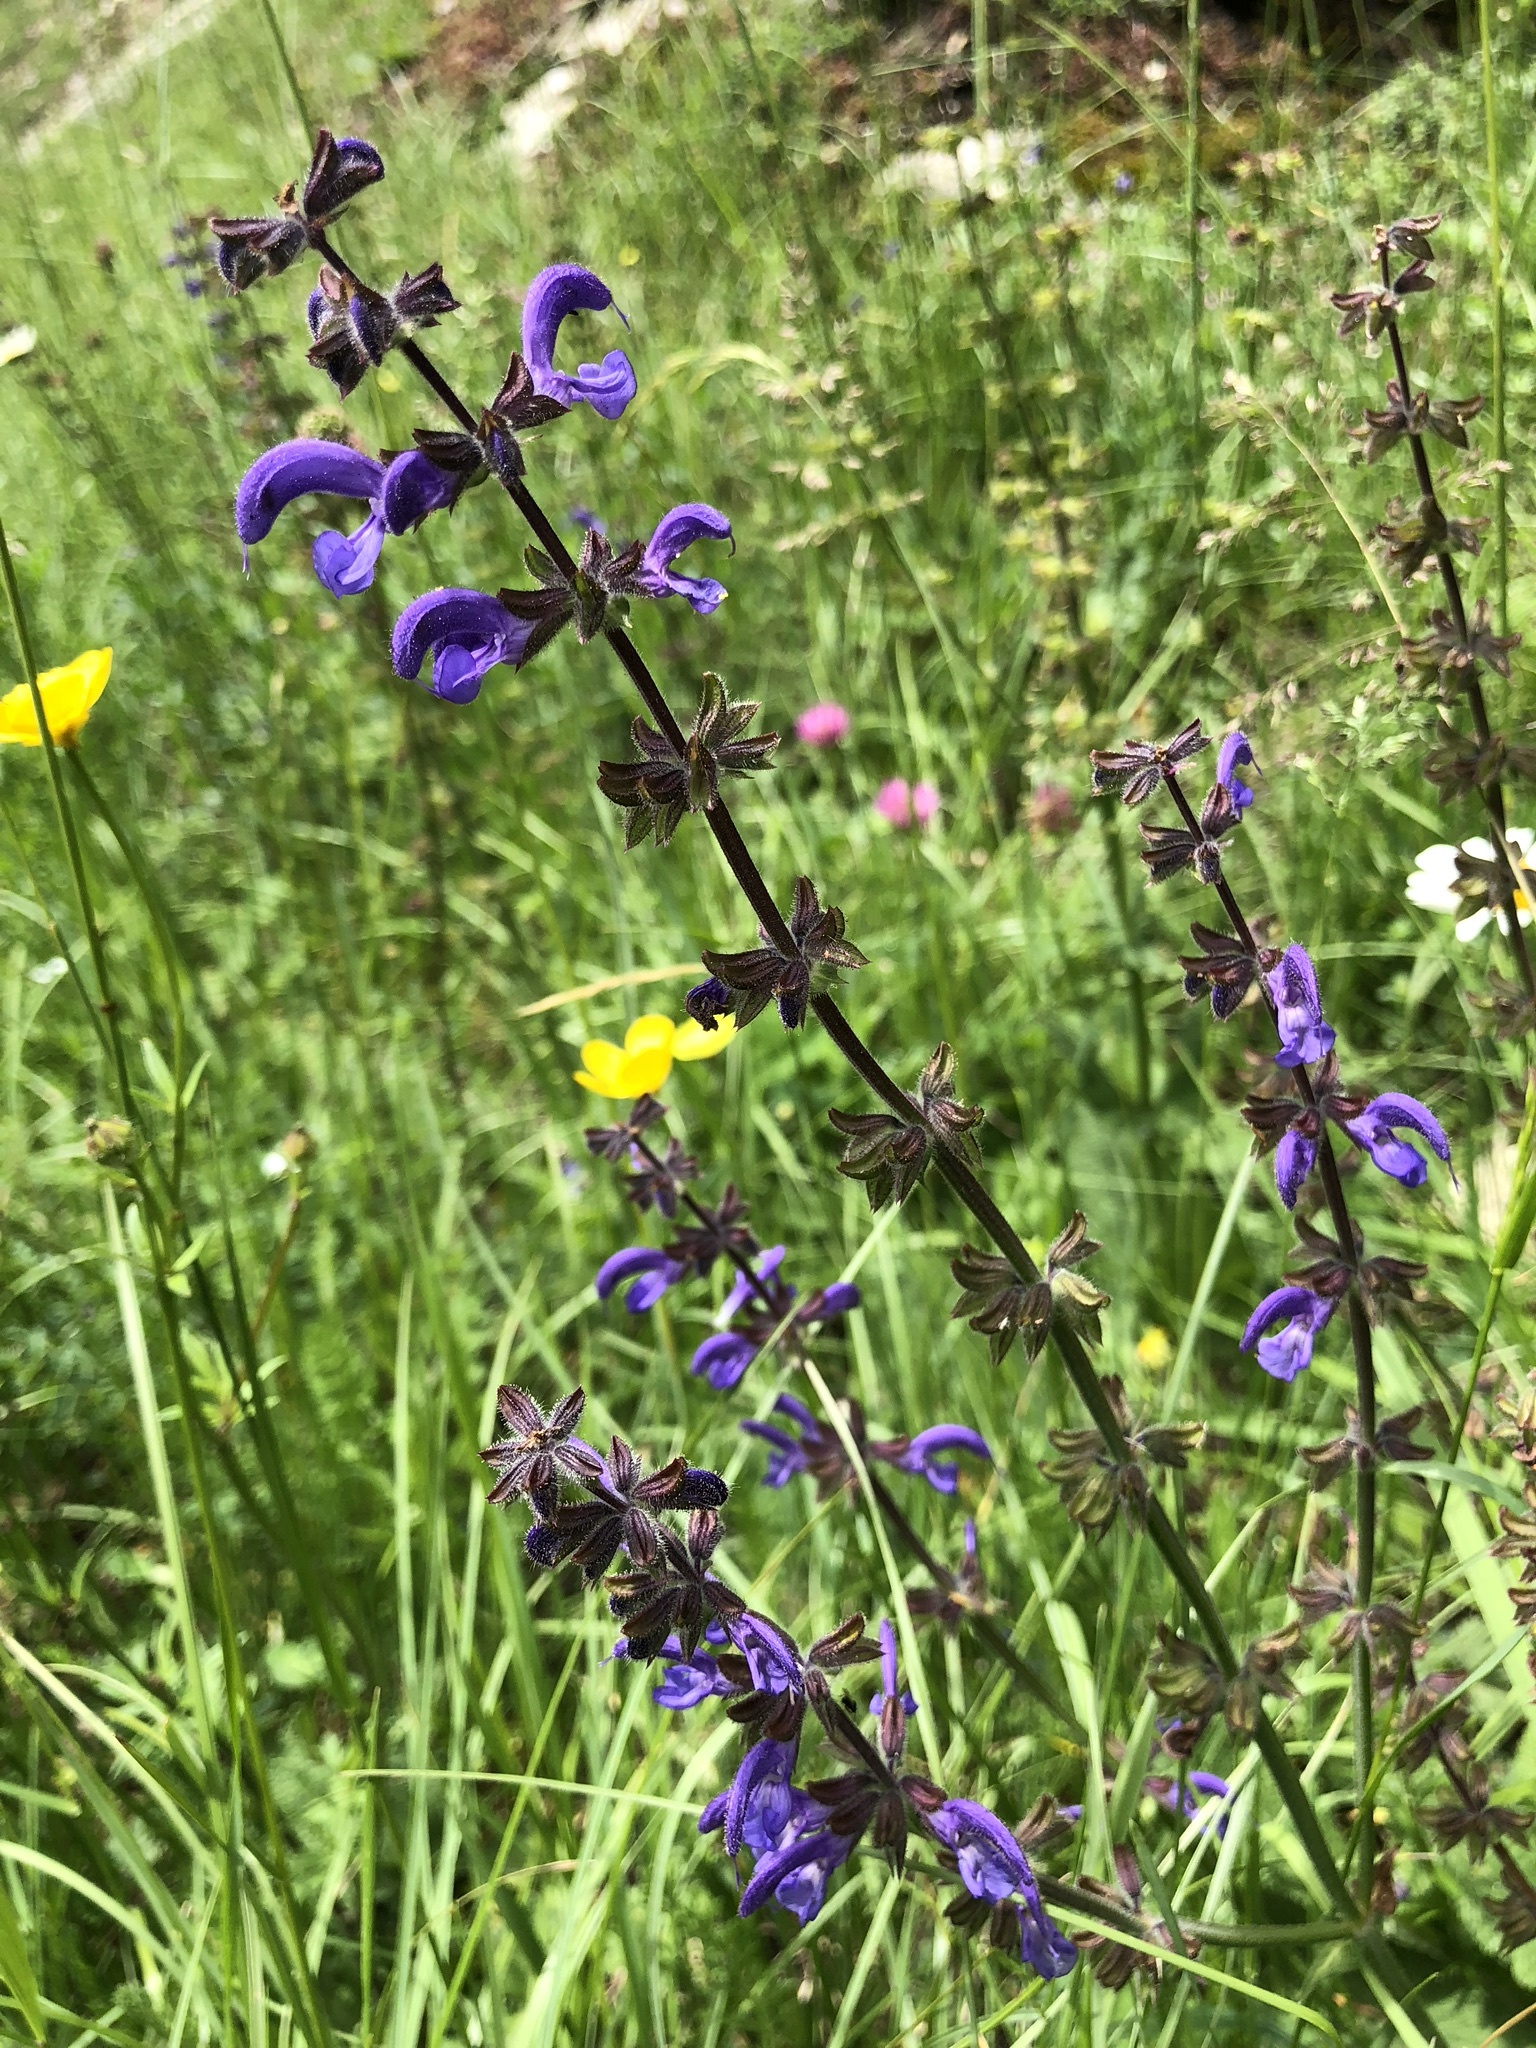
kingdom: Plantae
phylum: Tracheophyta
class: Magnoliopsida
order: Lamiales
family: Lamiaceae
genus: Salvia
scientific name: Salvia pratensis
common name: Meadow sage
